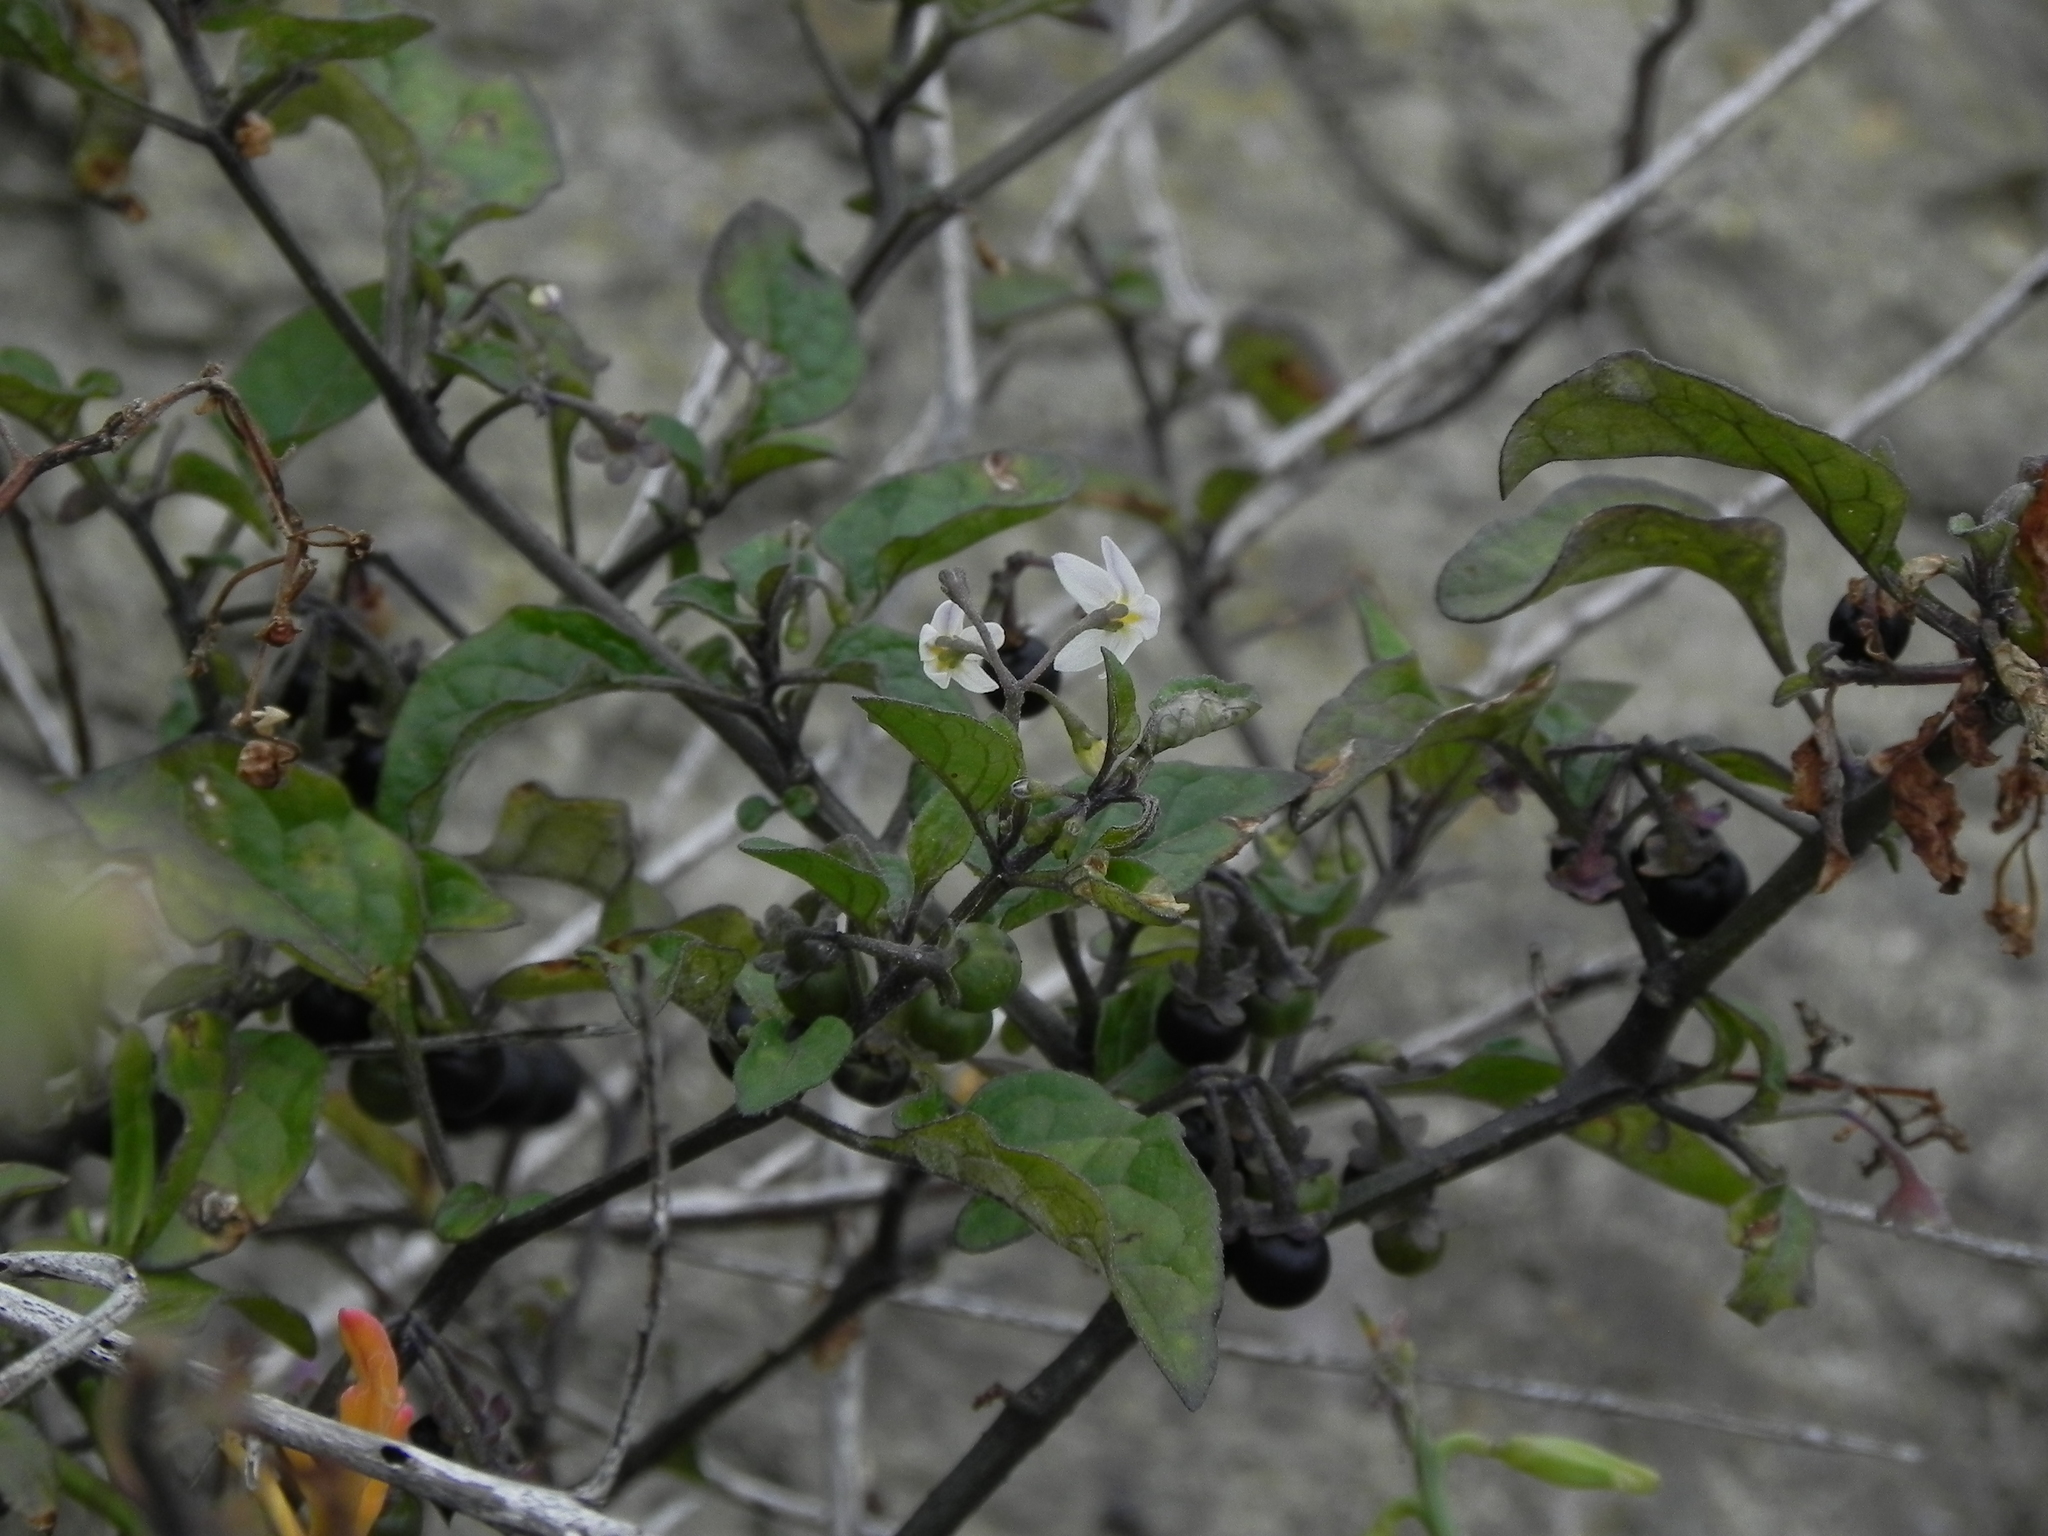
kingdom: Plantae
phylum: Tracheophyta
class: Magnoliopsida
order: Solanales
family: Solanaceae
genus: Solanum
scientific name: Solanum nigrum
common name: Black nightshade
